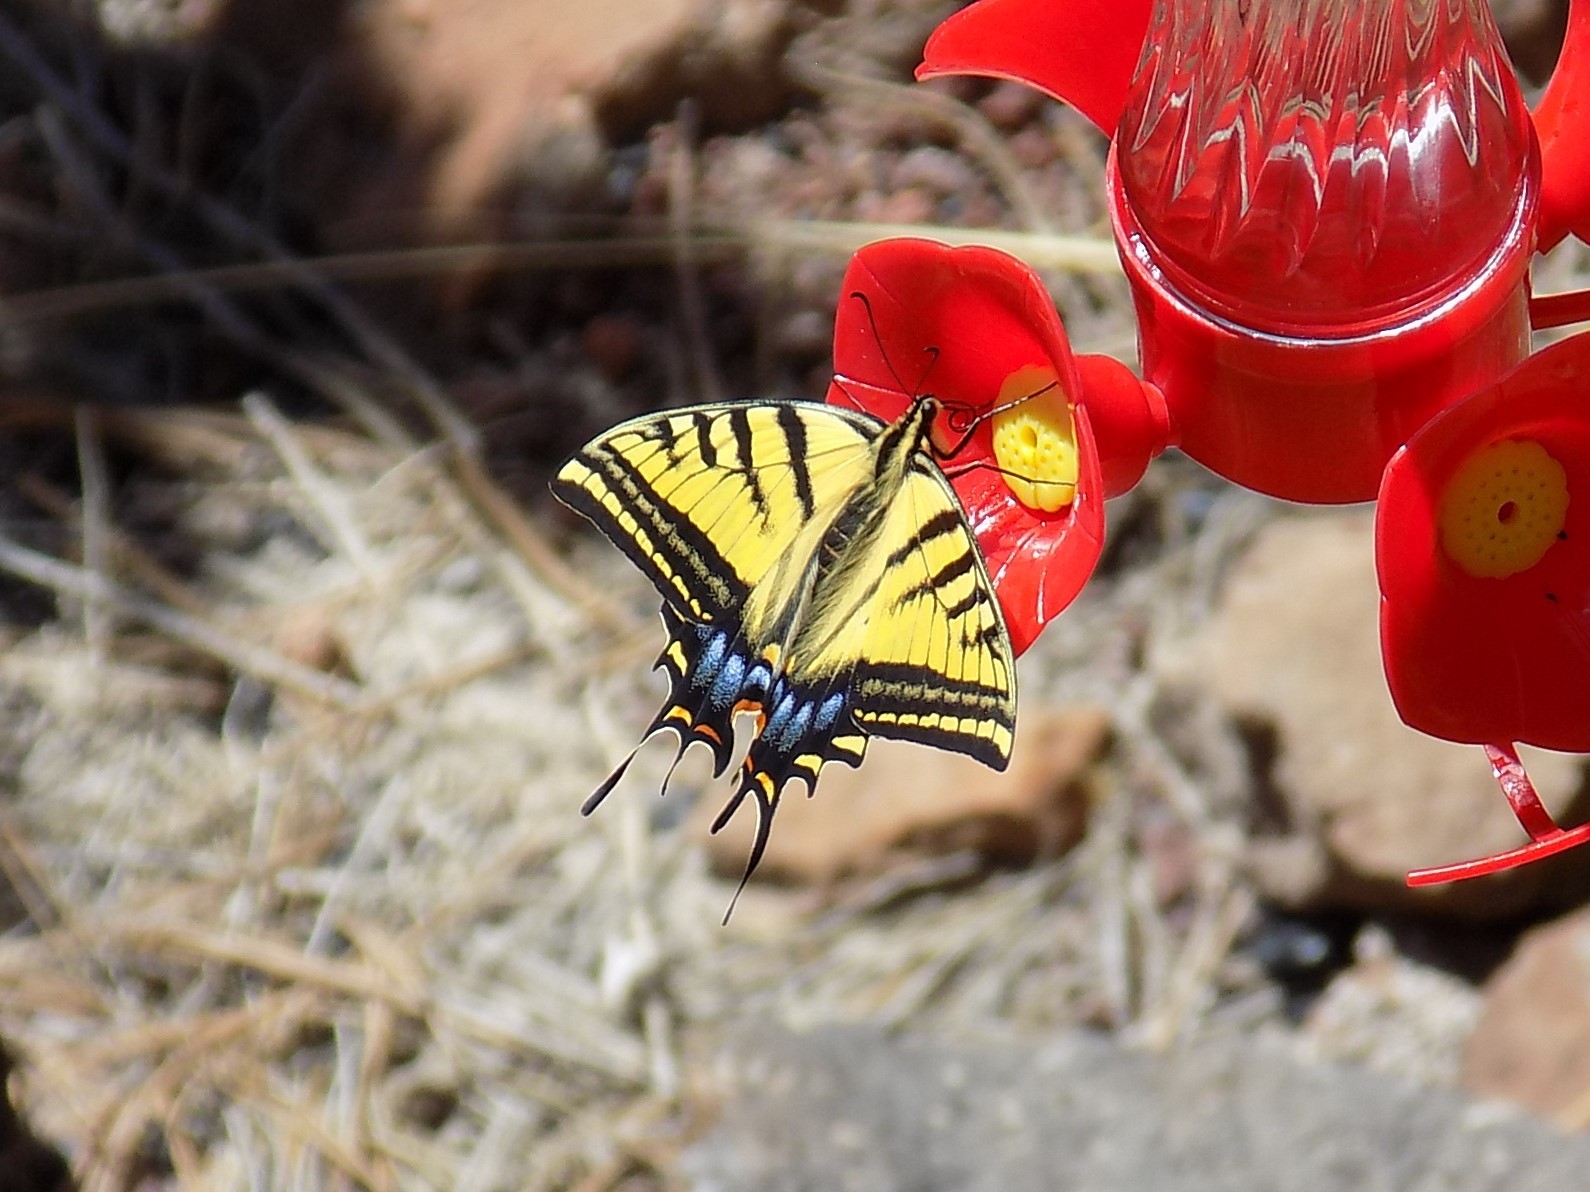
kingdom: Animalia
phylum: Arthropoda
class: Insecta
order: Lepidoptera
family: Papilionidae
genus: Papilio
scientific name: Papilio multicaudata
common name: Two-tailed tiger swallowtail
